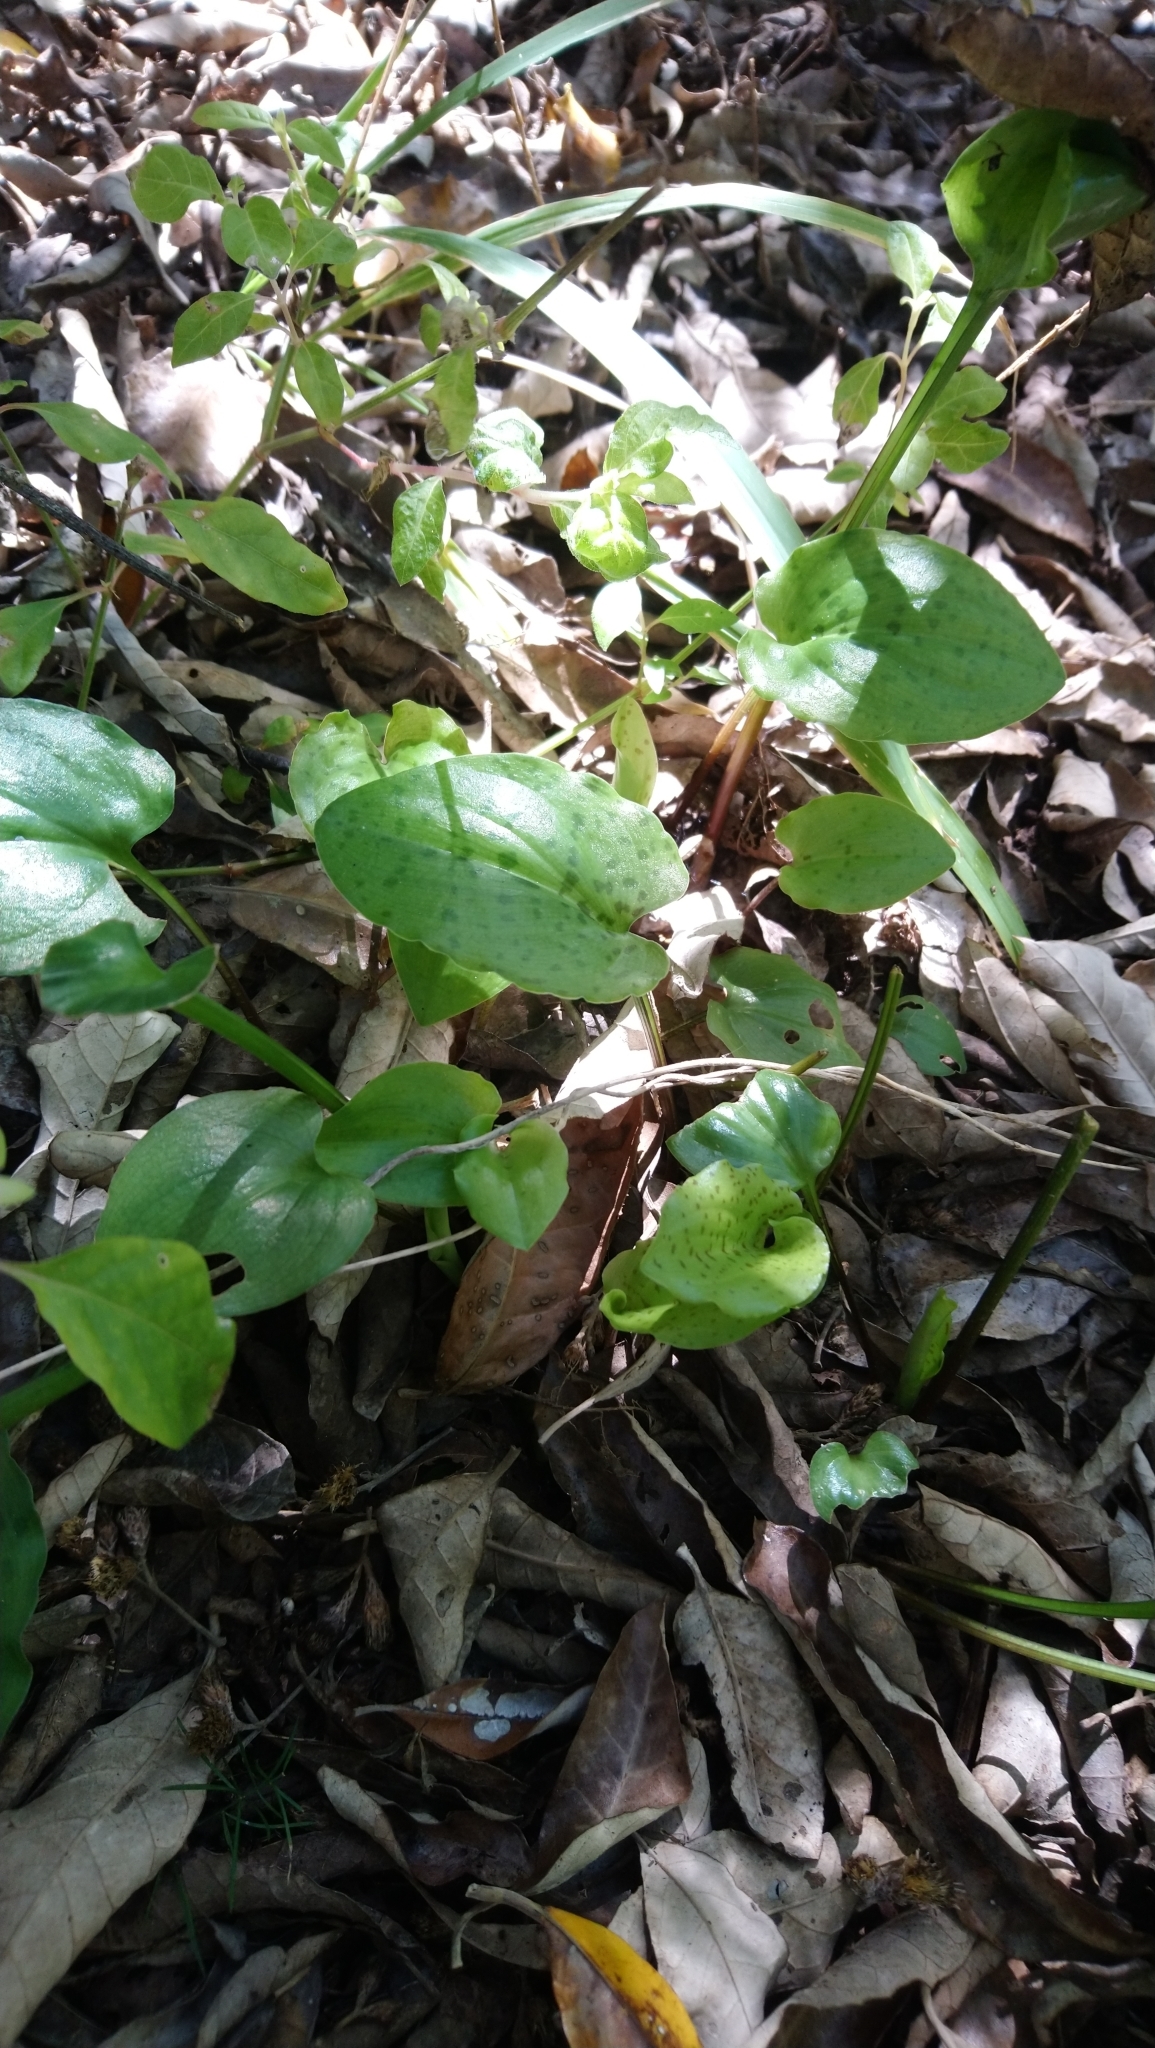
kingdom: Plantae
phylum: Tracheophyta
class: Liliopsida
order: Asparagales
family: Asparagaceae
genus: Drimiopsis
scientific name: Drimiopsis maculata
